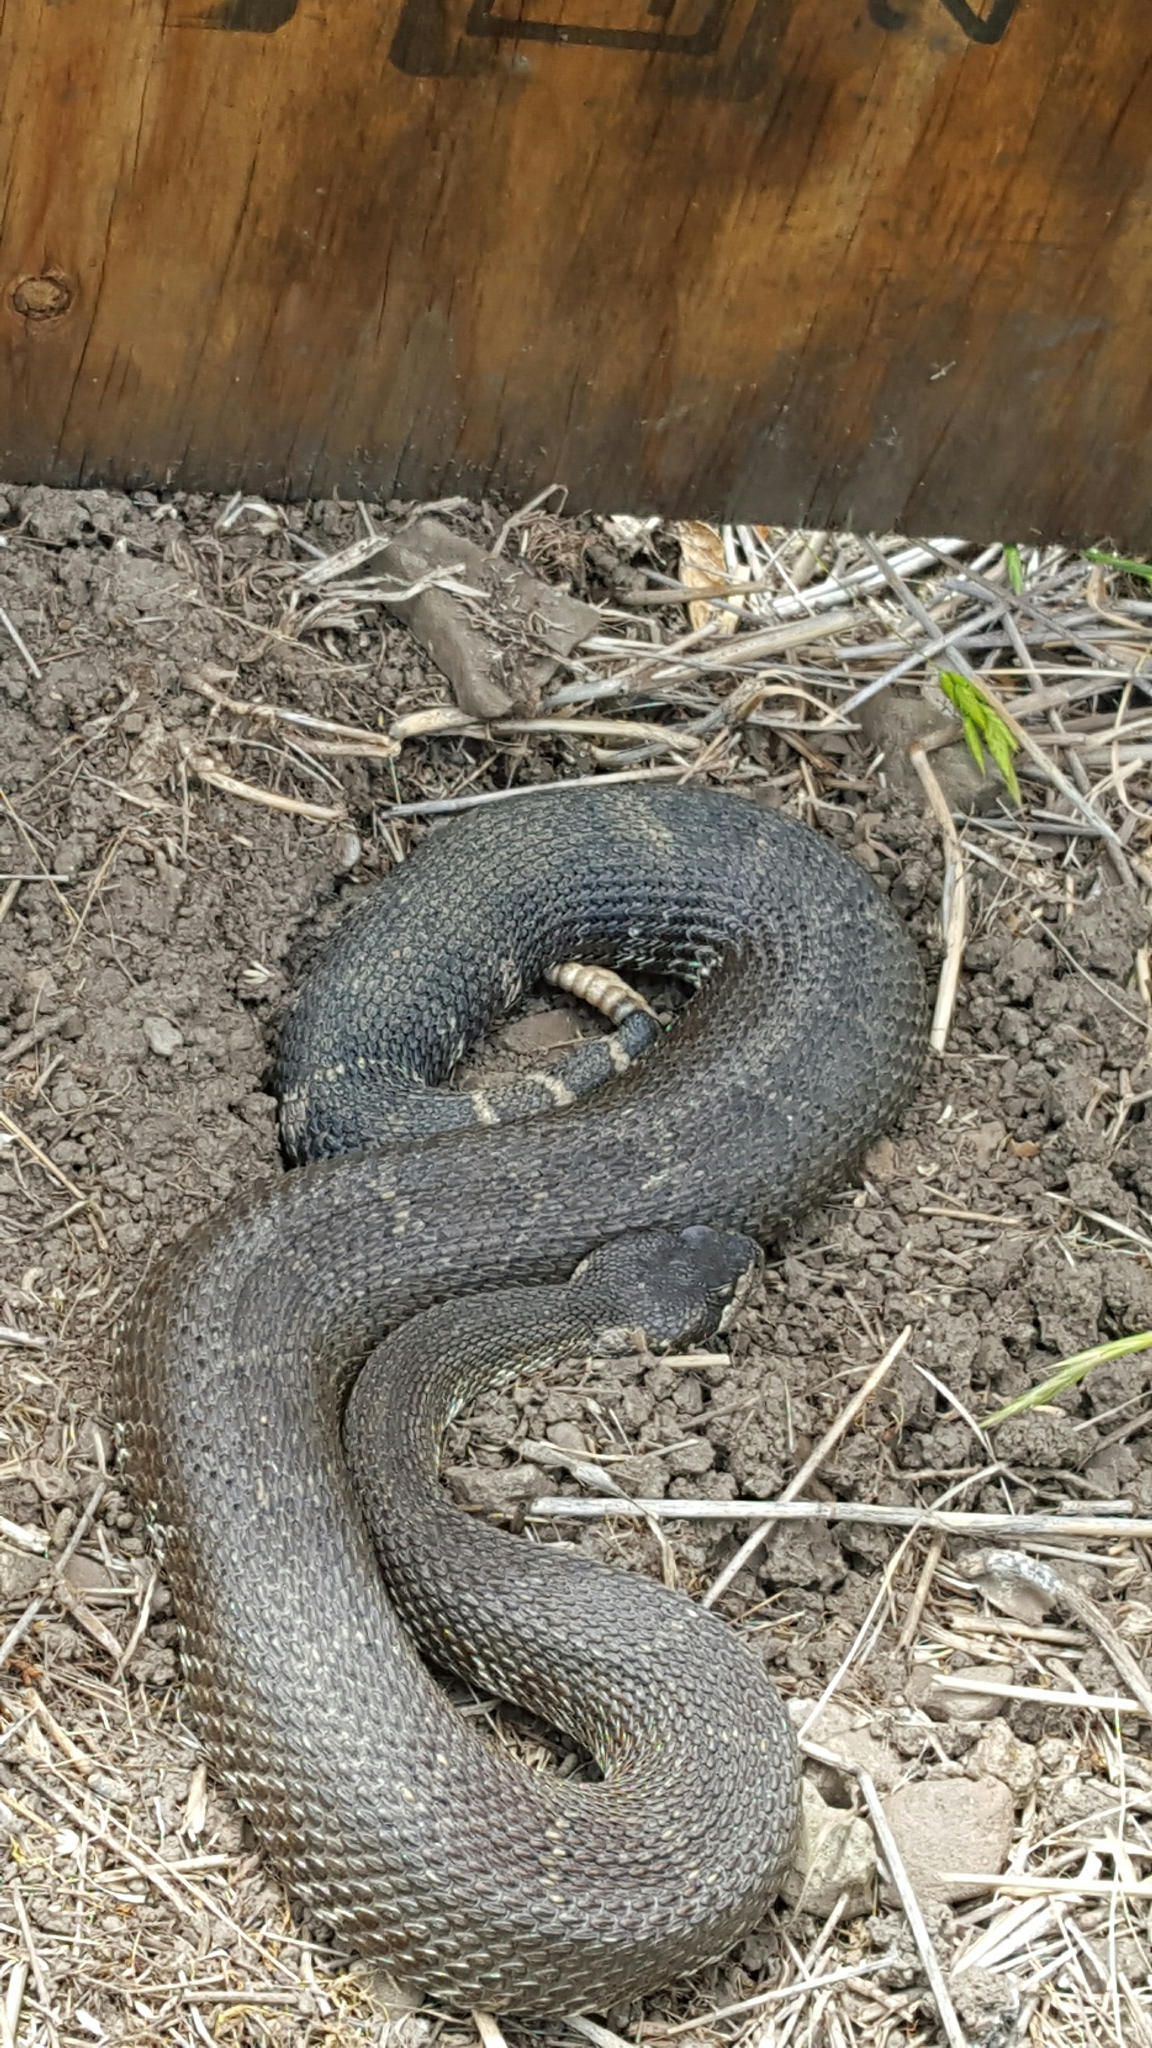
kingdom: Animalia
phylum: Chordata
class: Squamata
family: Viperidae
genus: Crotalus
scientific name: Crotalus oreganus
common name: Abyssus
